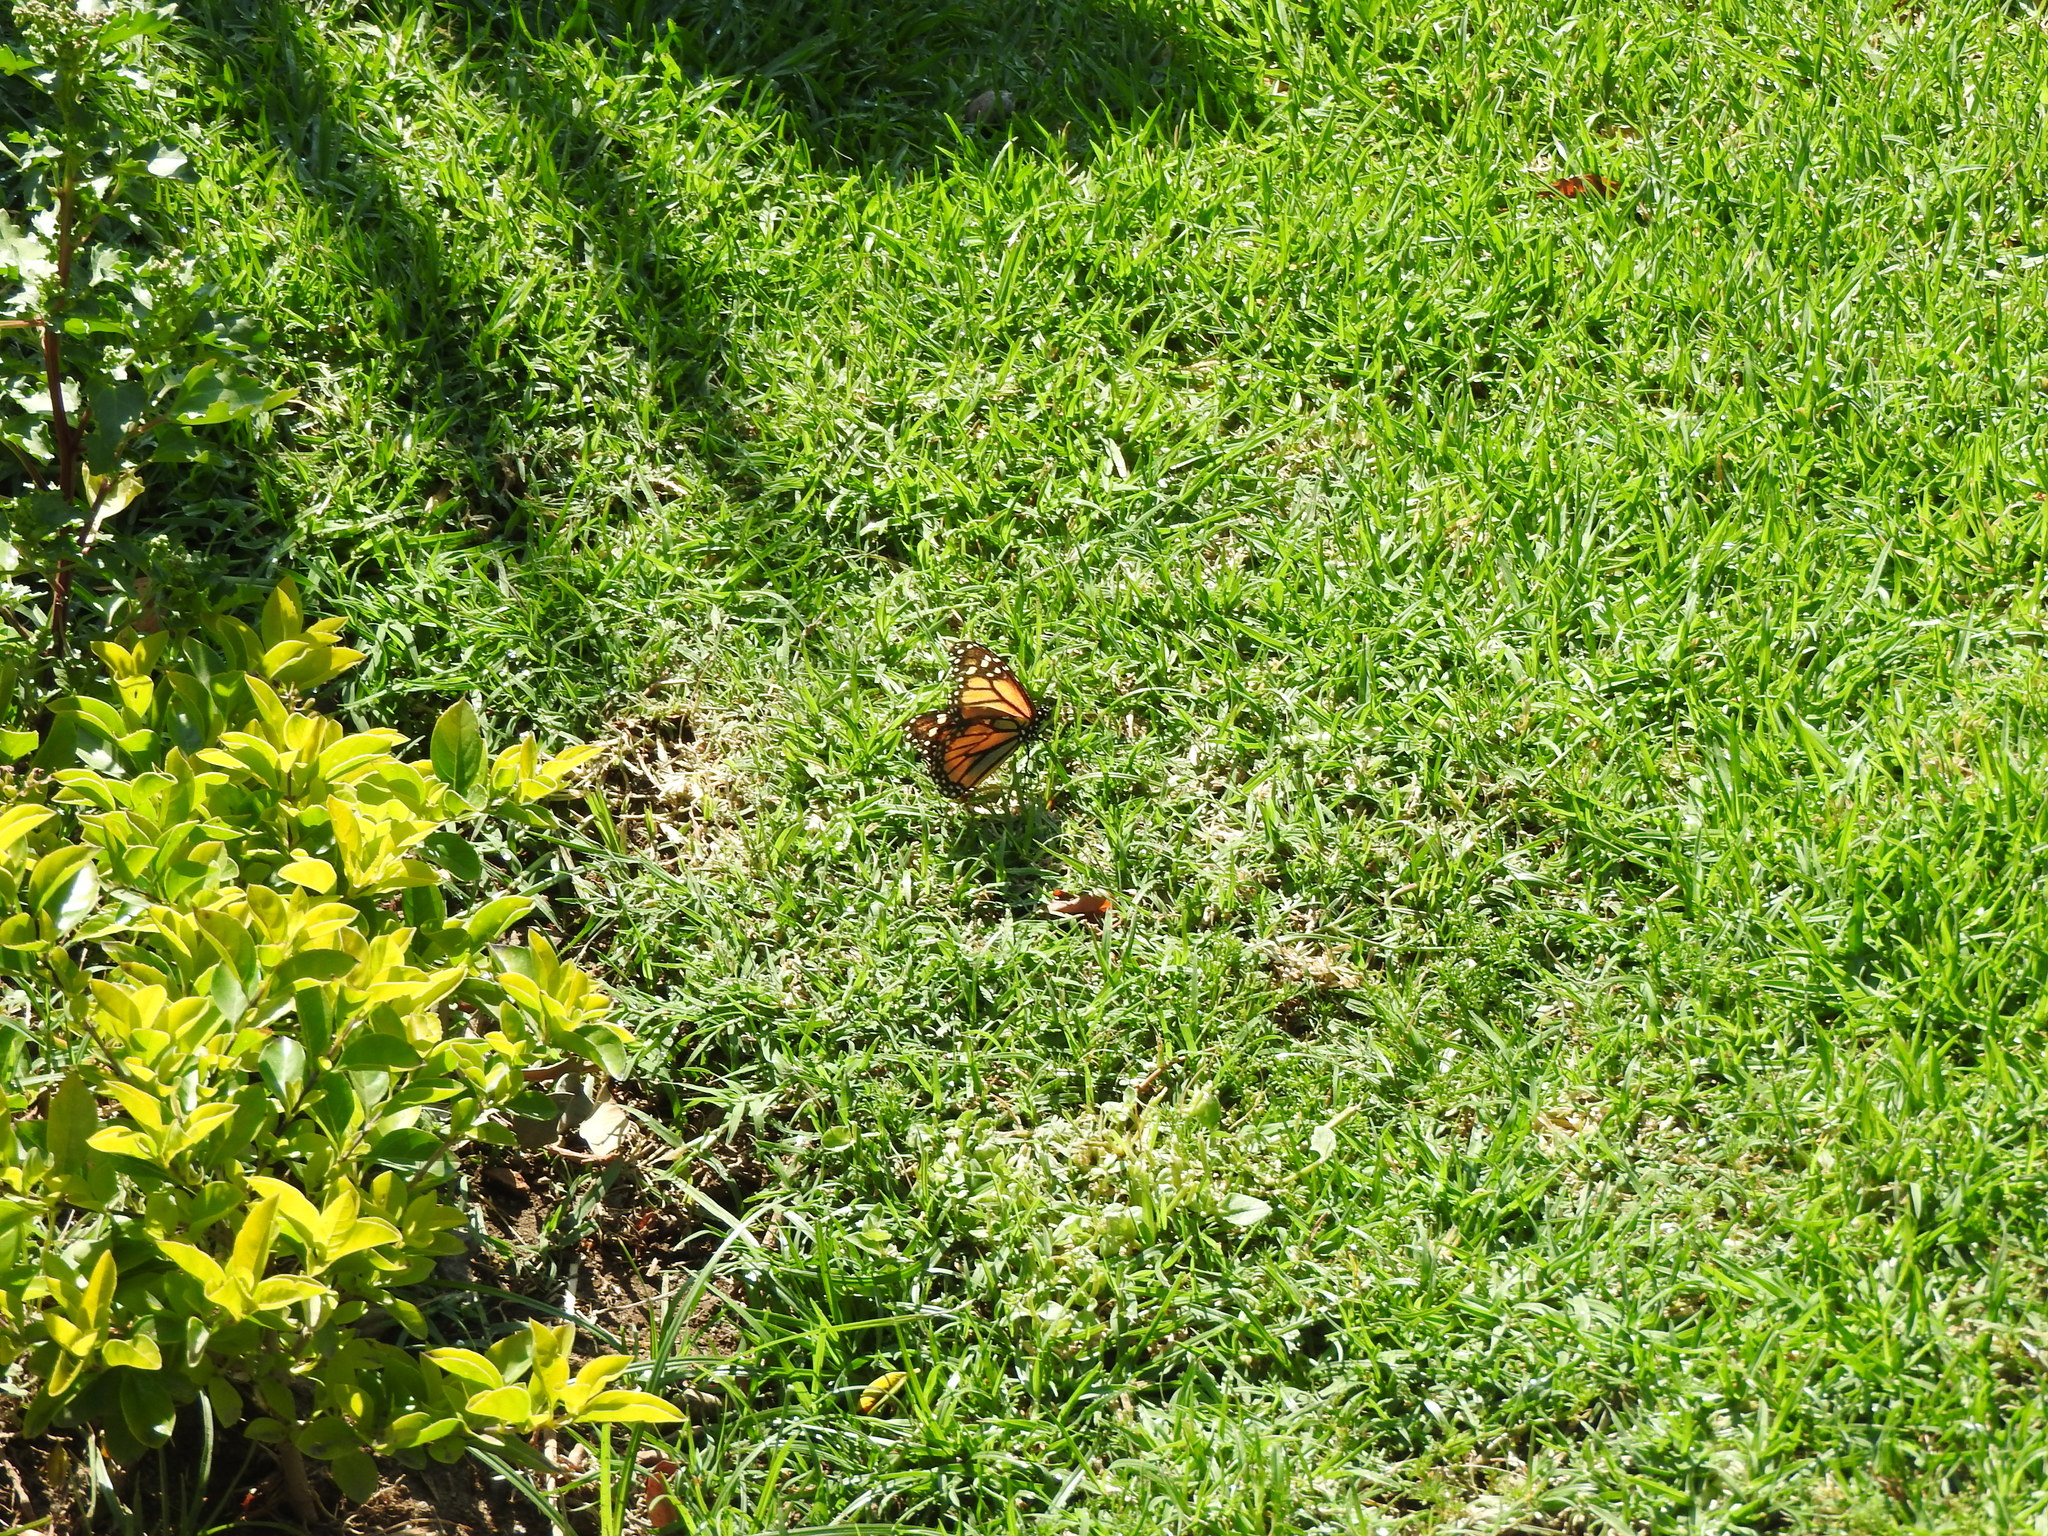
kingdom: Animalia
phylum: Arthropoda
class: Insecta
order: Lepidoptera
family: Nymphalidae
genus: Danaus
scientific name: Danaus plexippus
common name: Monarch
